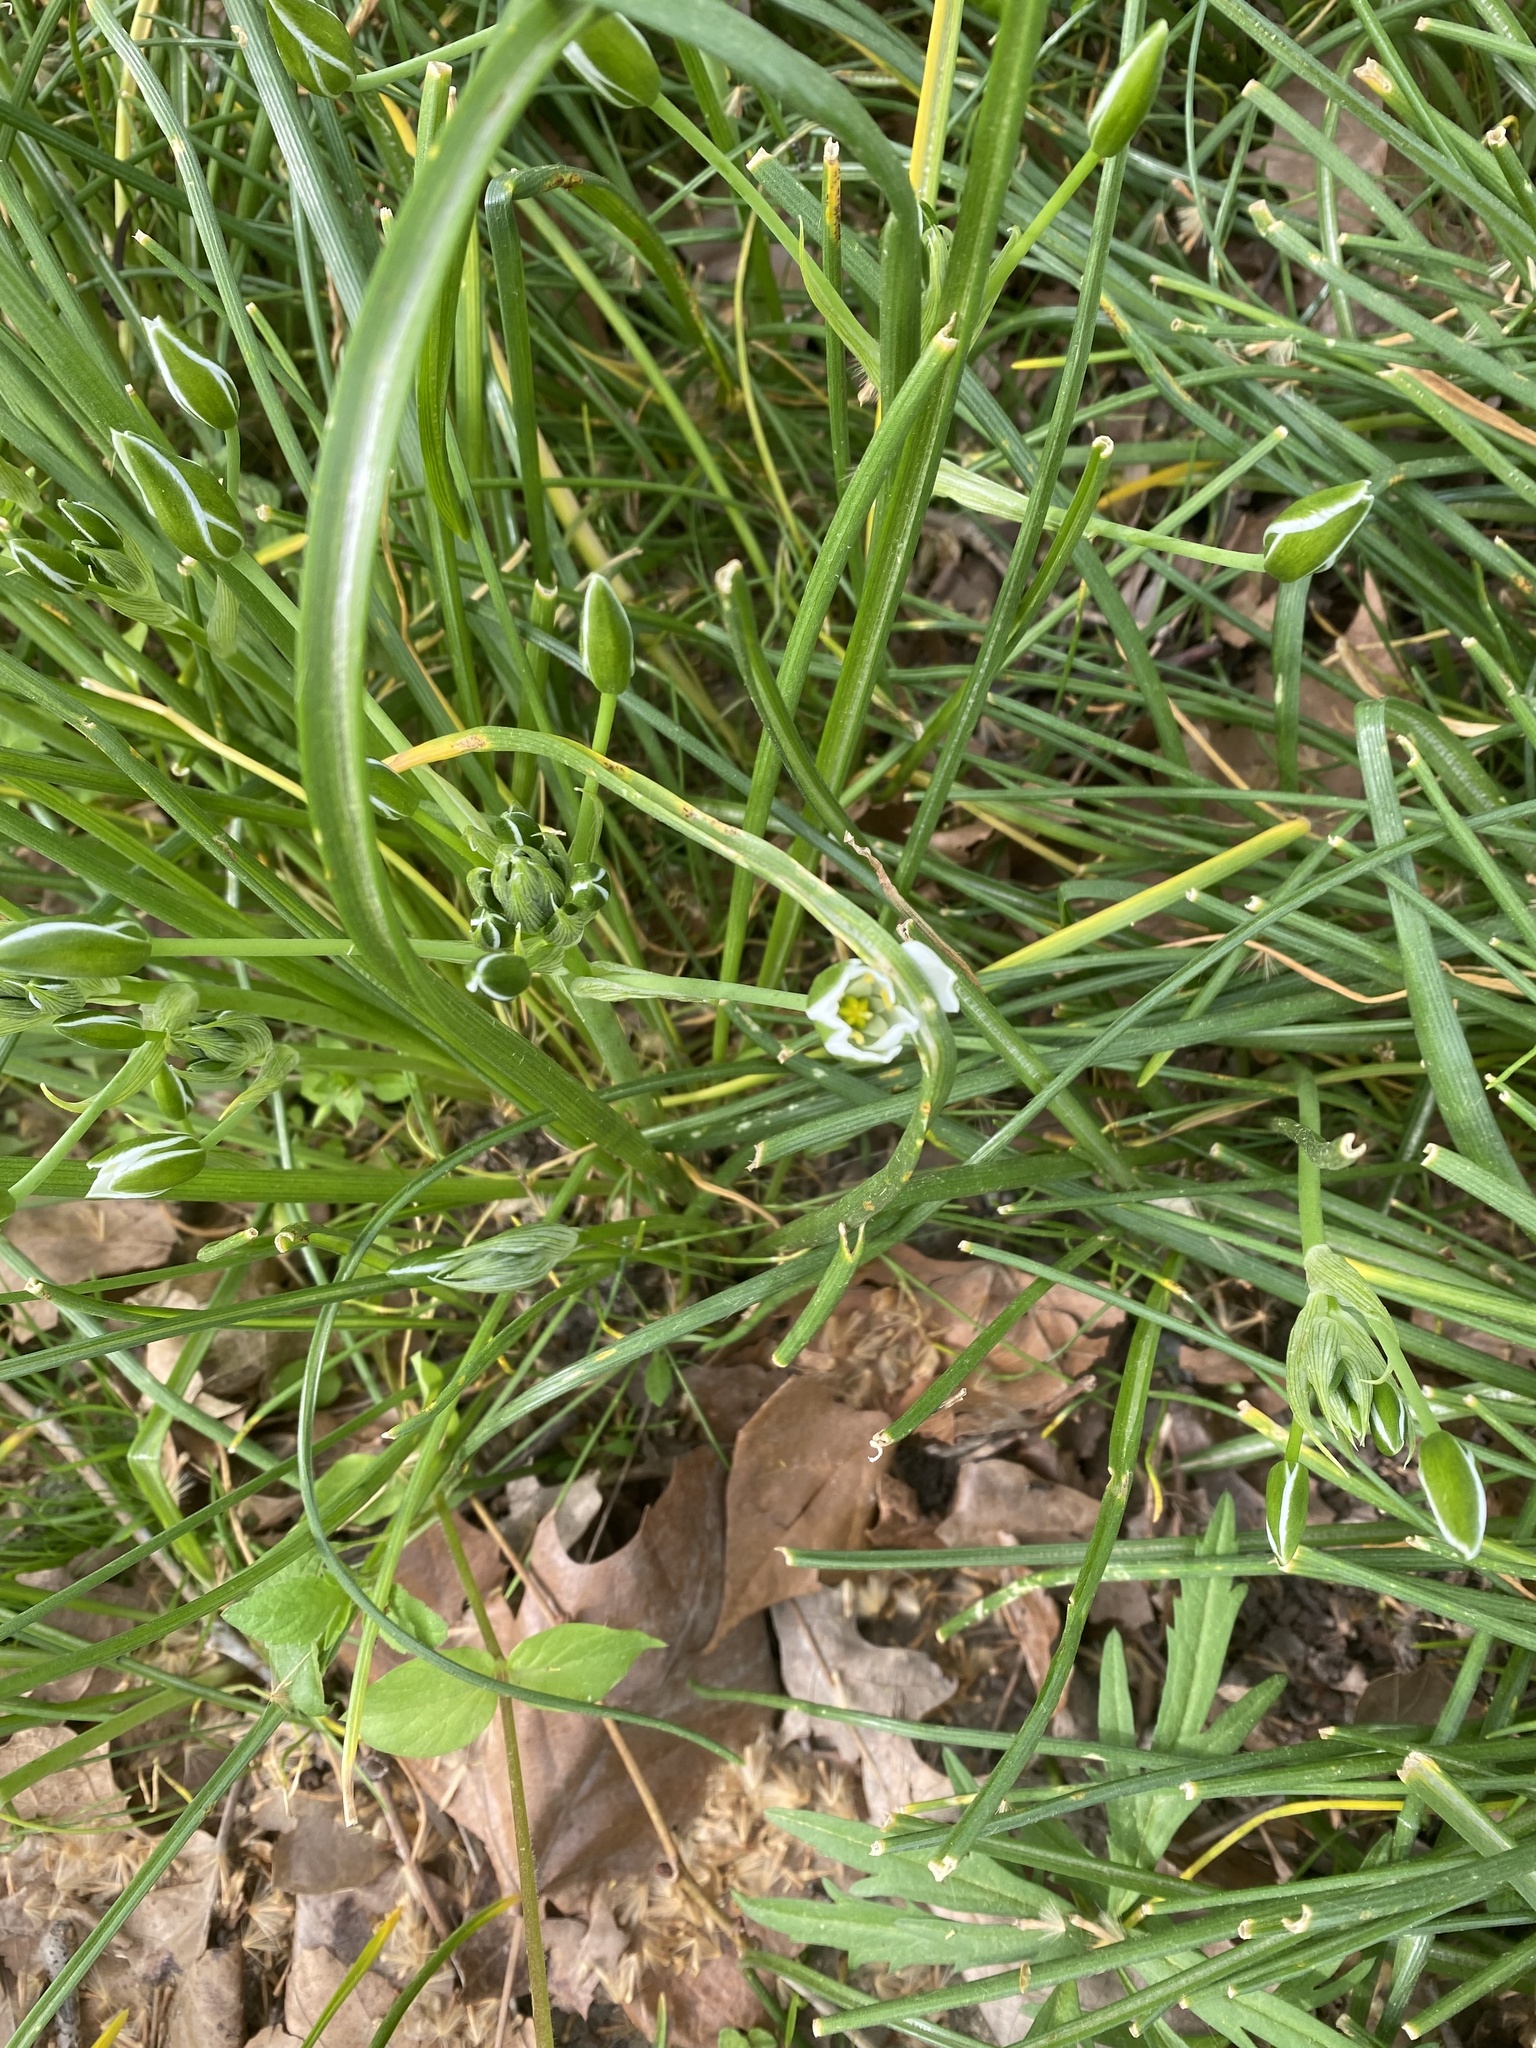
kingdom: Plantae
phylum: Tracheophyta
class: Liliopsida
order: Asparagales
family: Asparagaceae
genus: Ornithogalum
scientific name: Ornithogalum umbellatum
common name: Garden star-of-bethlehem
